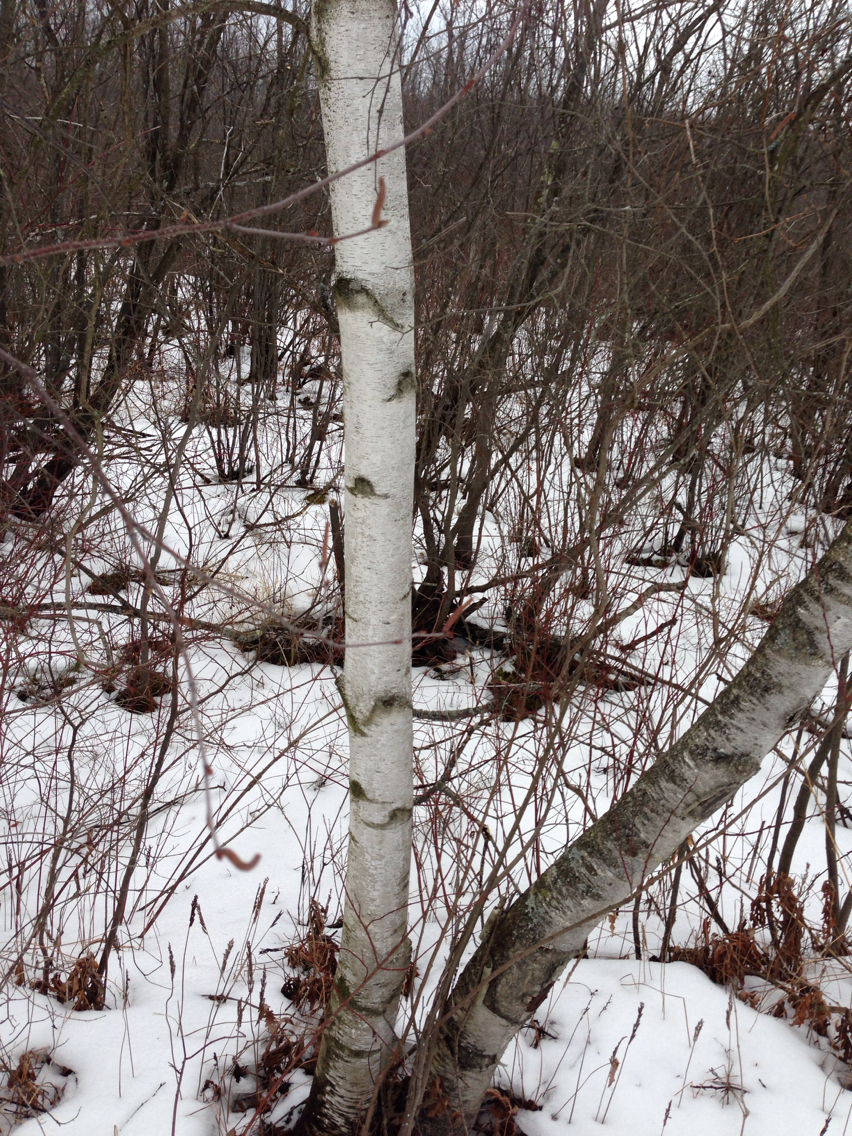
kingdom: Plantae
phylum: Tracheophyta
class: Magnoliopsida
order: Fagales
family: Betulaceae
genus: Betula
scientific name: Betula populifolia
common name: Fire birch
